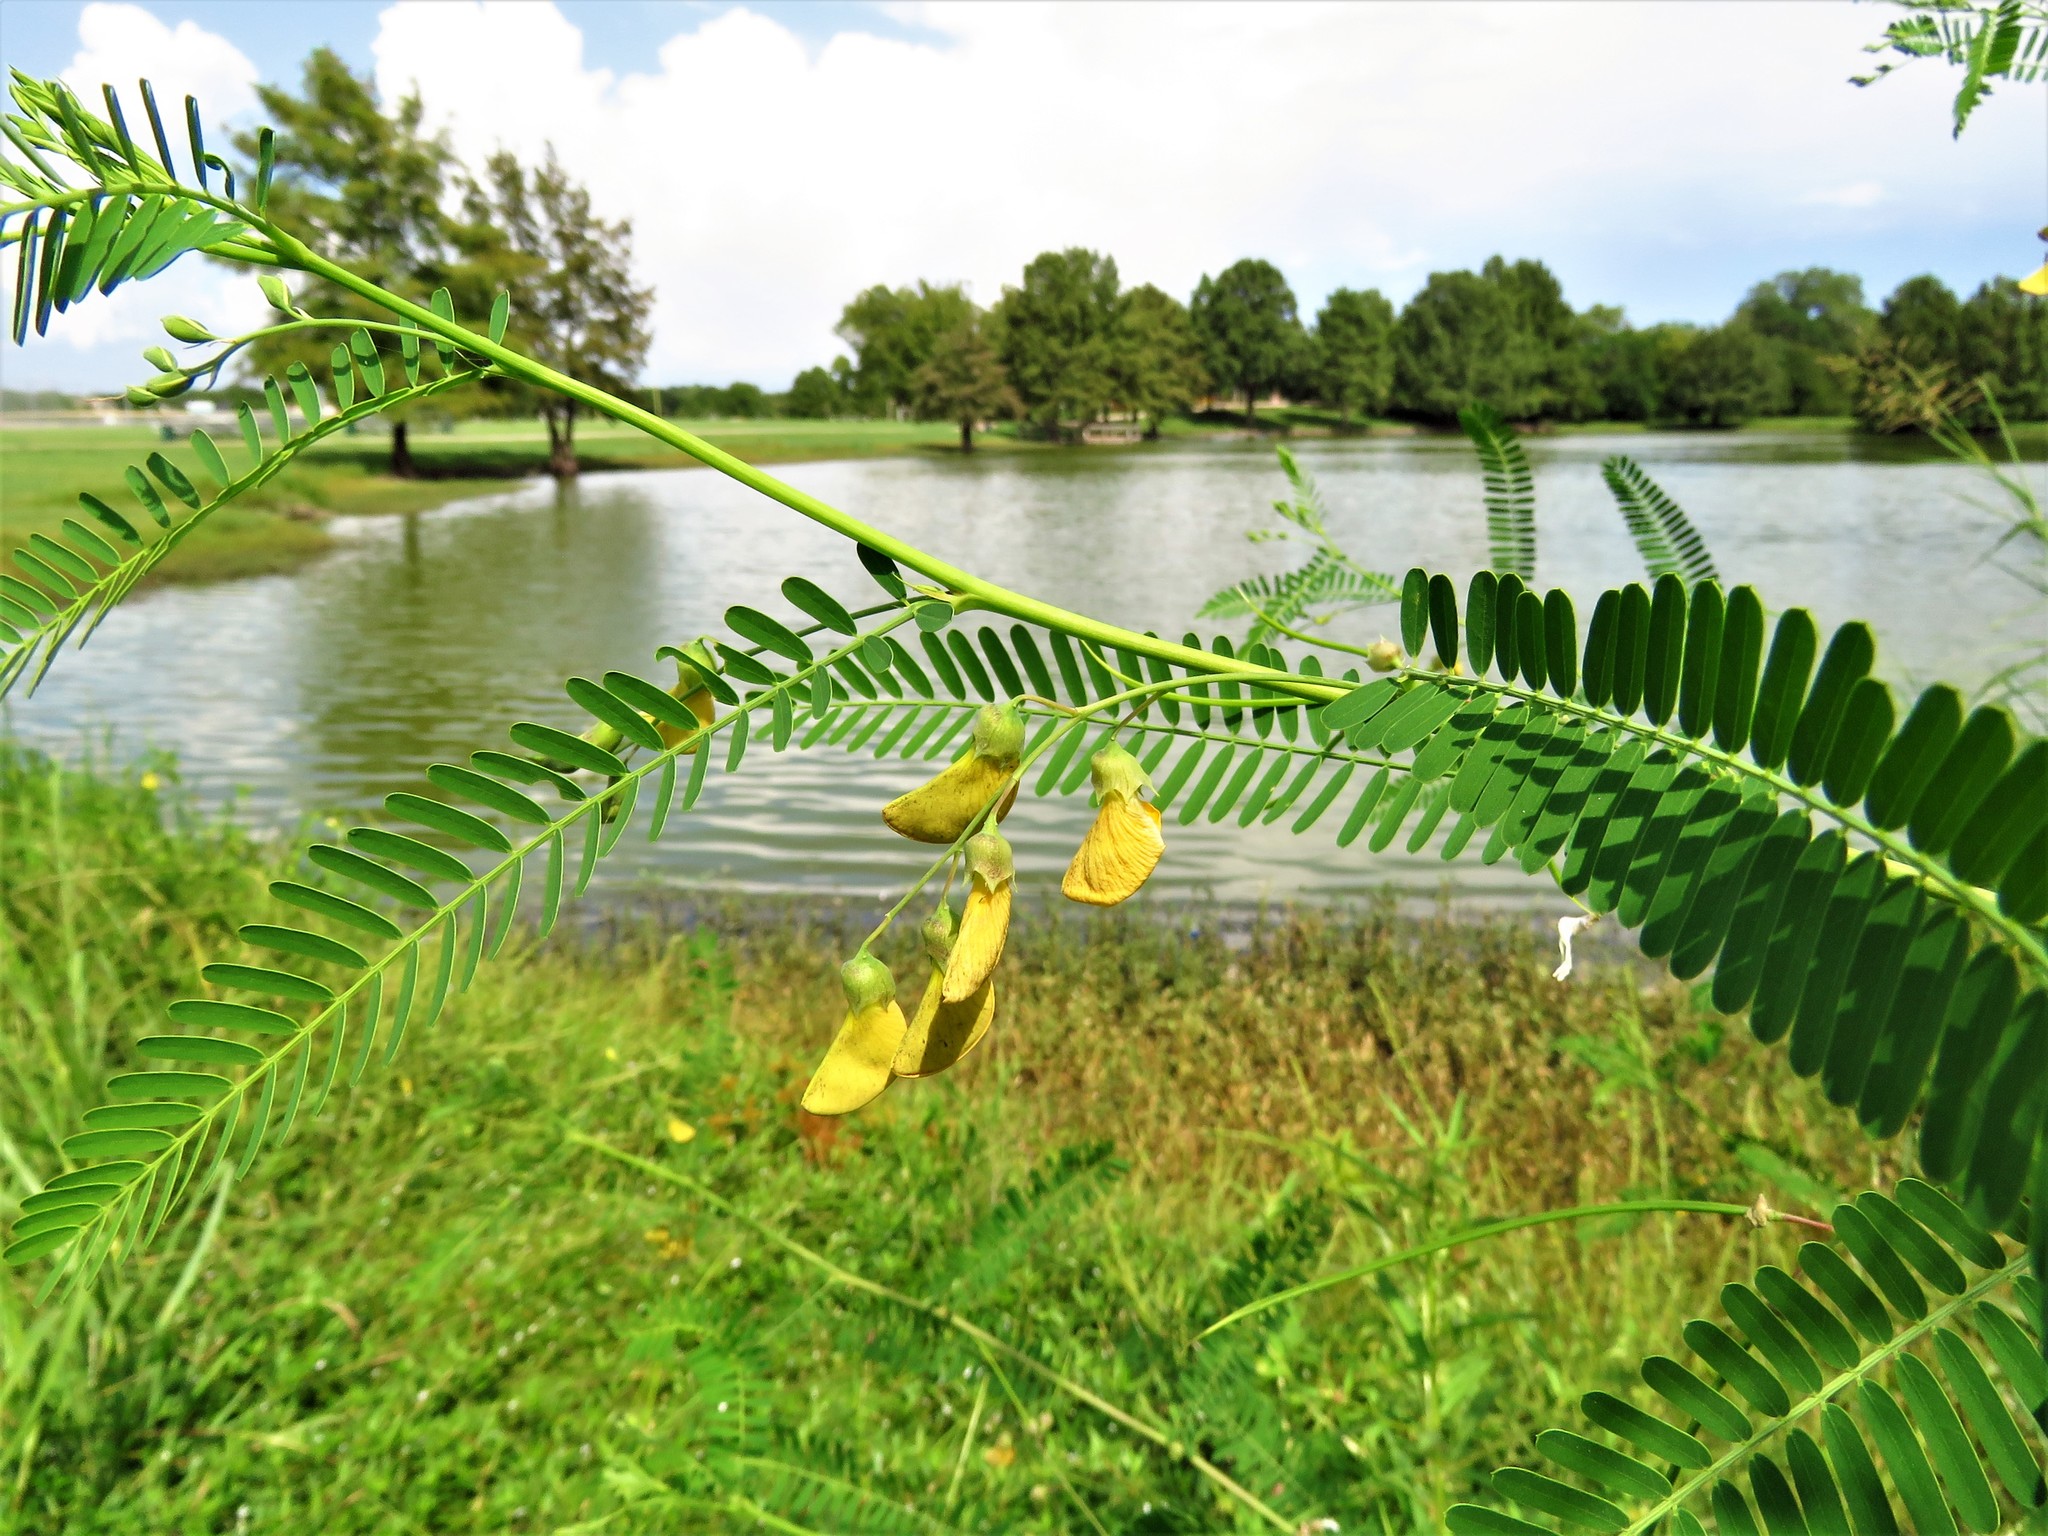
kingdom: Plantae
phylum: Tracheophyta
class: Magnoliopsida
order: Fabales
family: Fabaceae
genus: Sesbania
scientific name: Sesbania herbacea
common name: Bigpod sesbania
